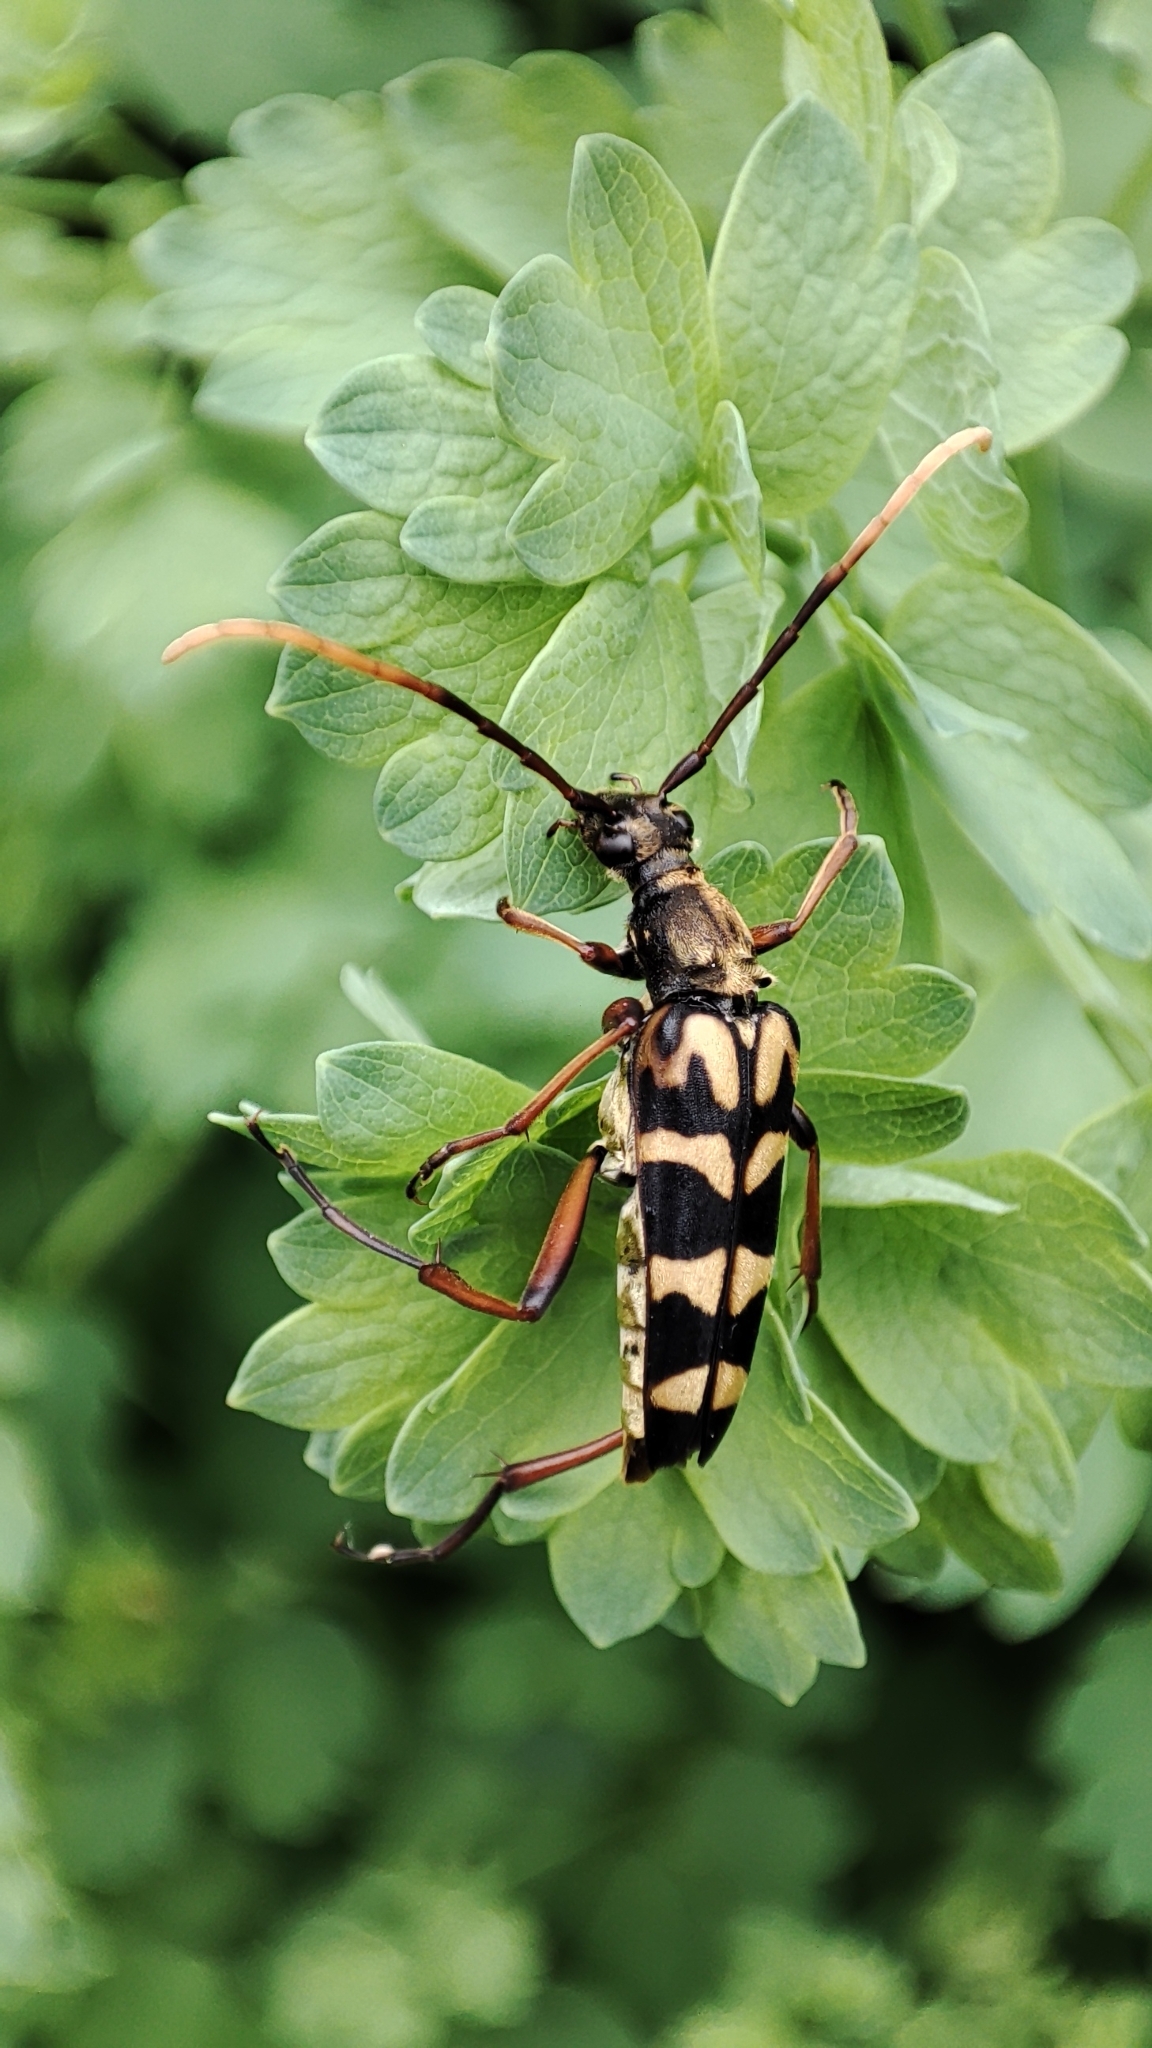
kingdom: Animalia
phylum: Arthropoda
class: Insecta
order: Coleoptera
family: Cerambycidae
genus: Leptura
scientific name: Leptura annularis
